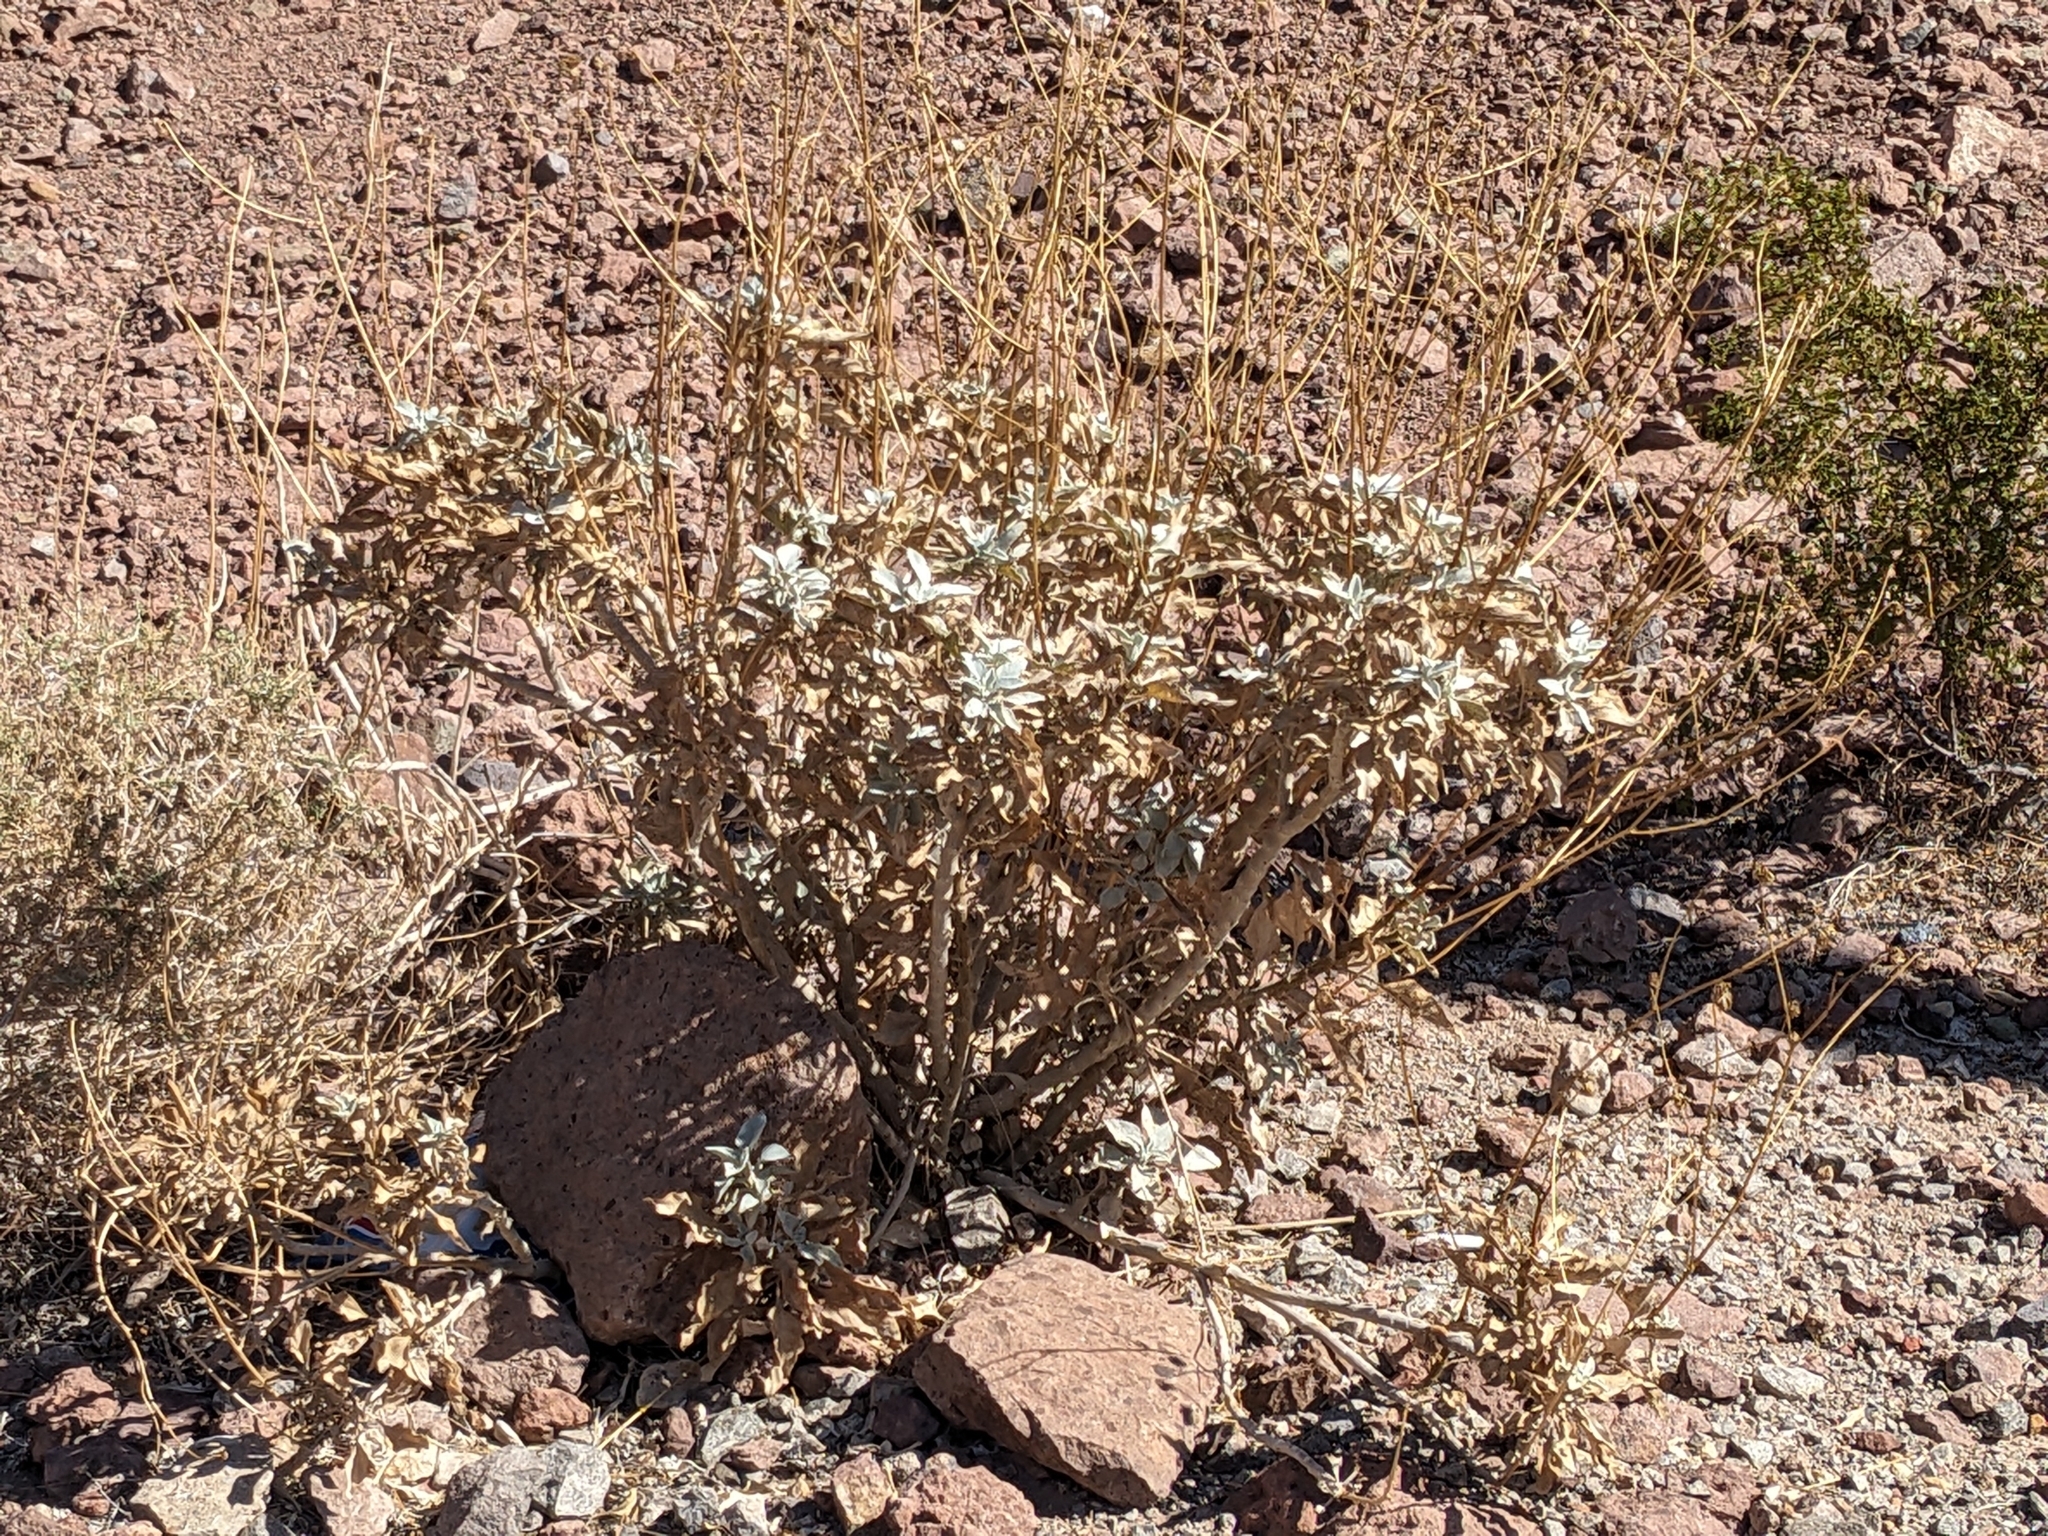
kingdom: Plantae
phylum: Tracheophyta
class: Magnoliopsida
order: Asterales
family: Asteraceae
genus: Encelia
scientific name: Encelia farinosa
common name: Brittlebush
